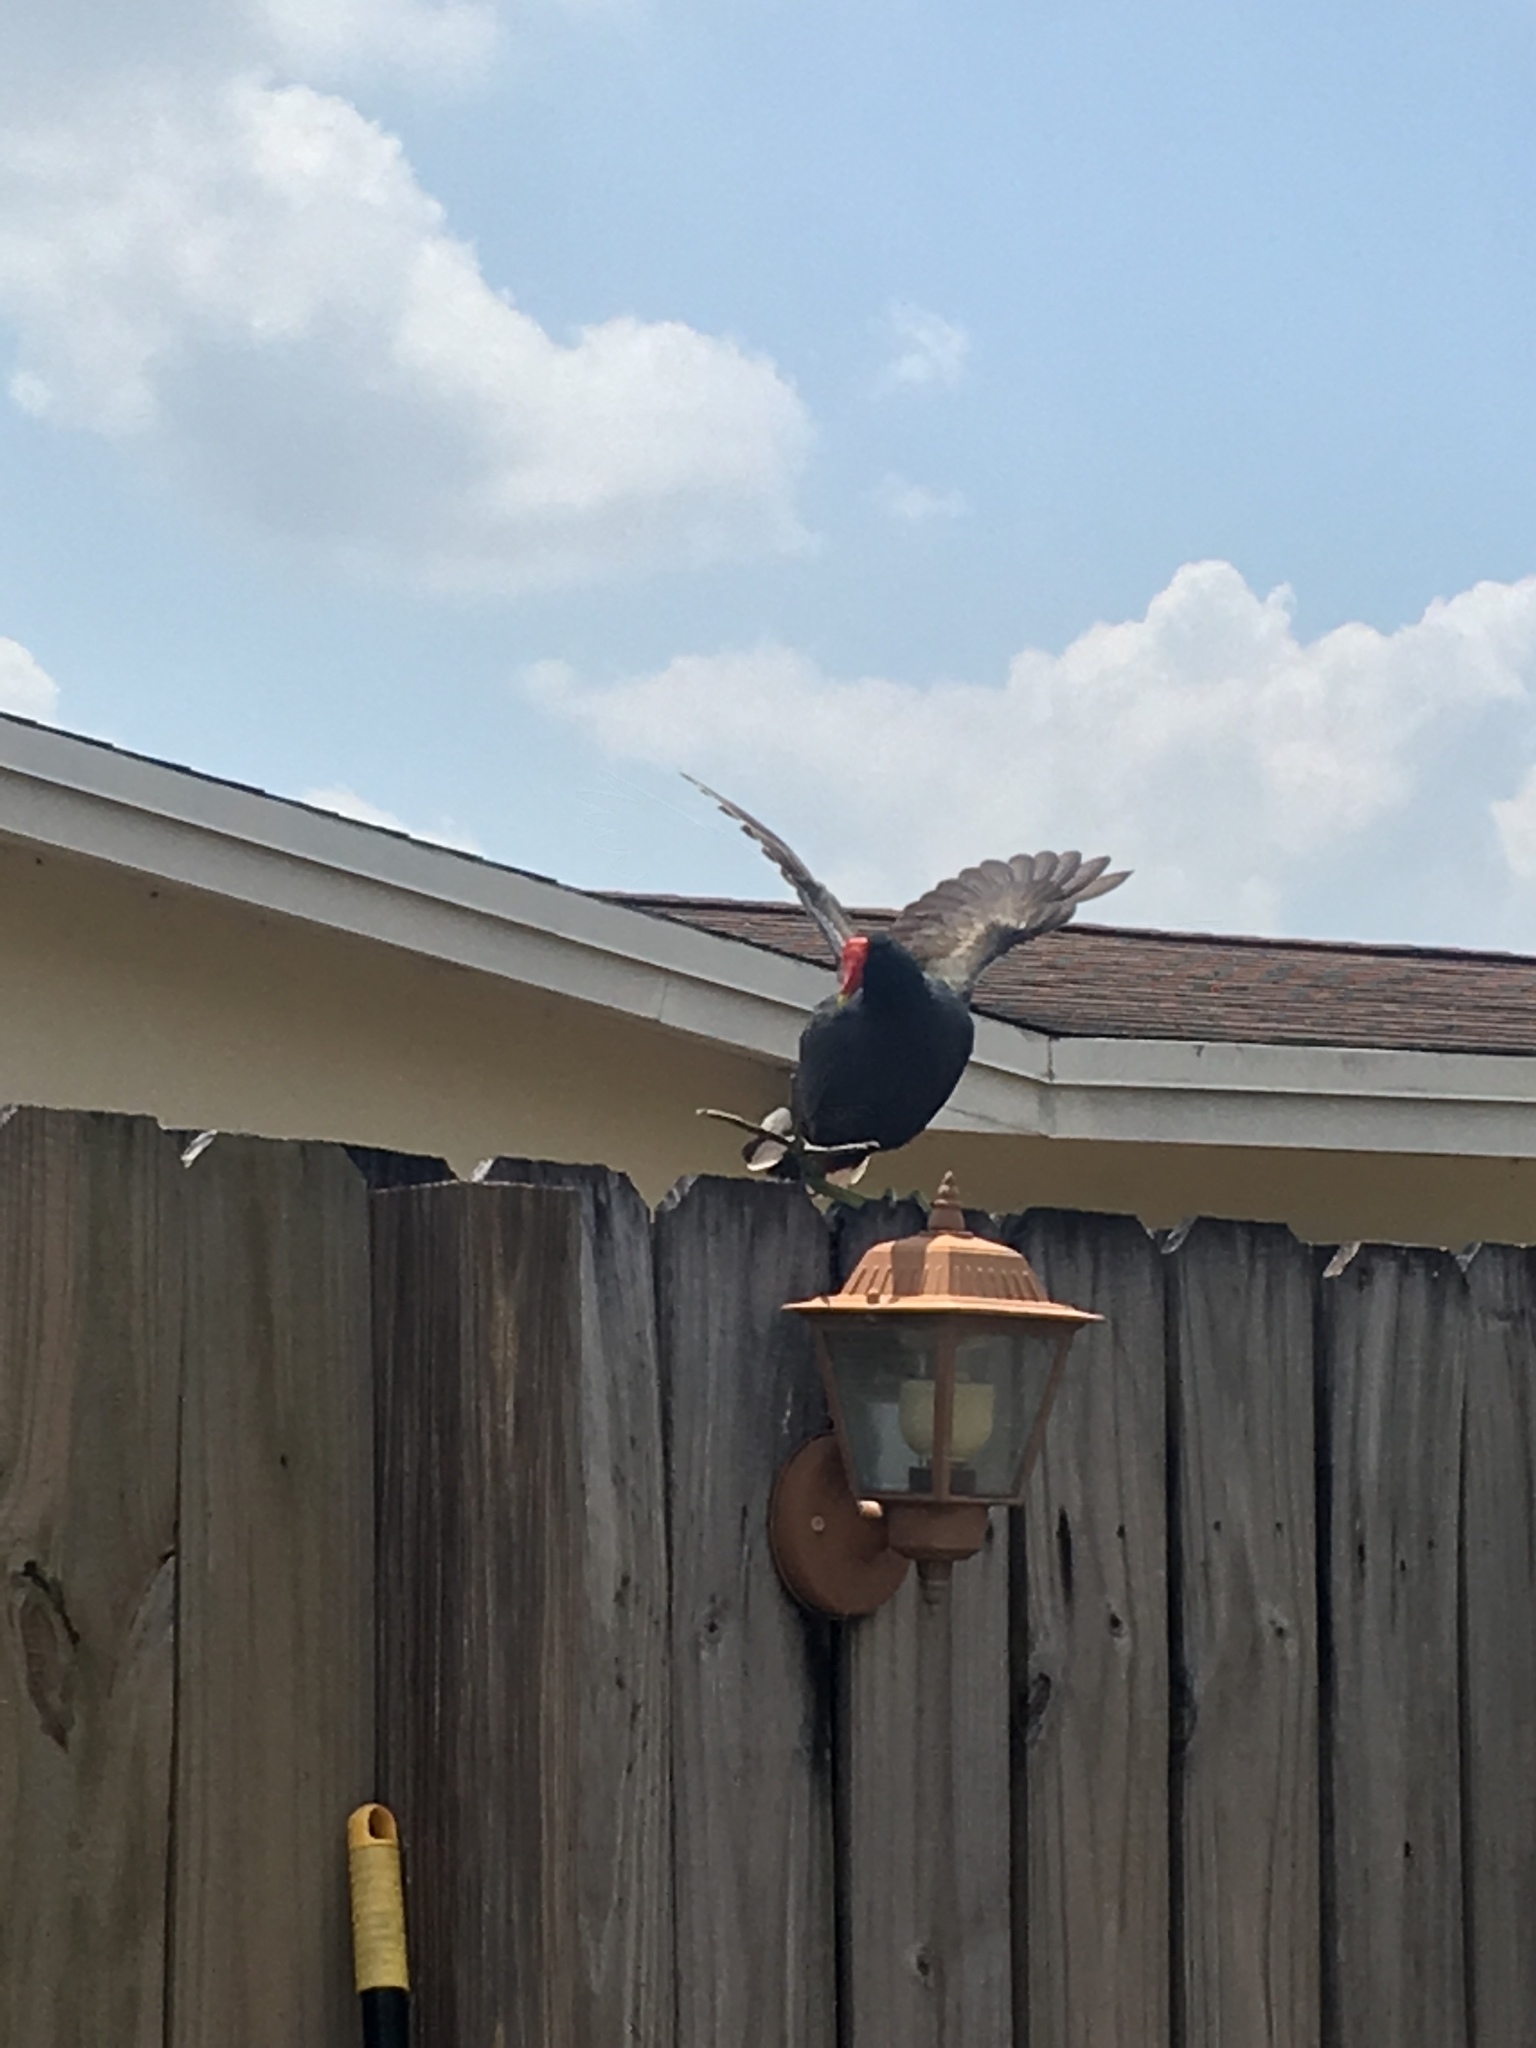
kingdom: Animalia
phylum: Chordata
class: Aves
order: Gruiformes
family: Rallidae
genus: Gallinula
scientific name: Gallinula chloropus
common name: Common moorhen
